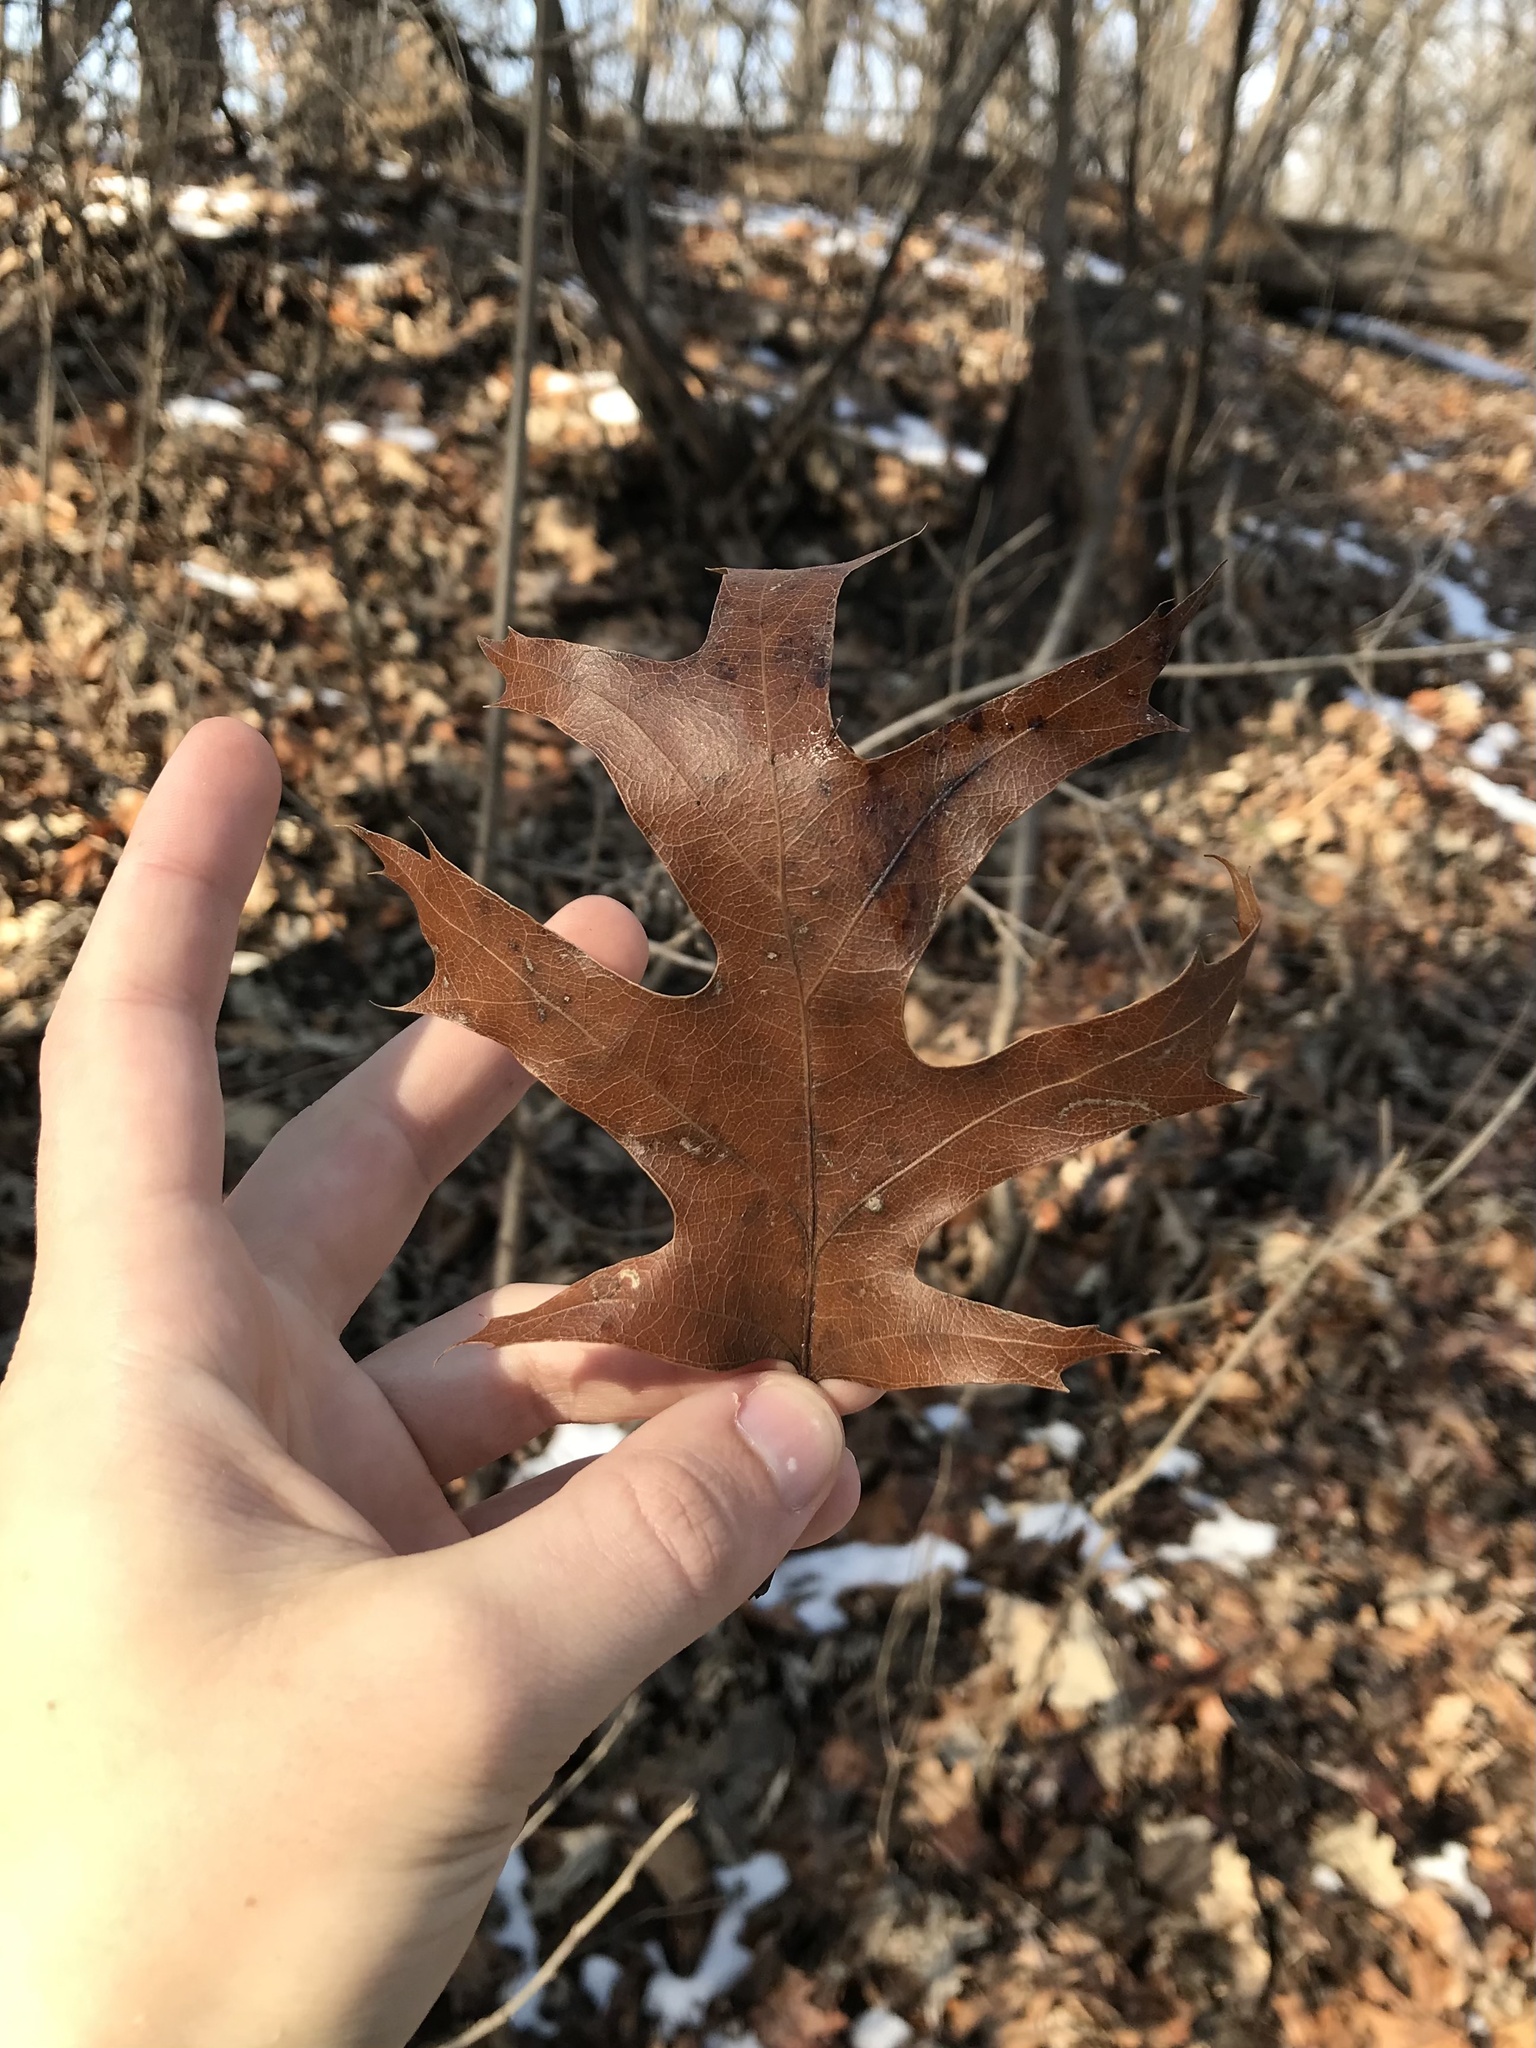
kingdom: Plantae
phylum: Tracheophyta
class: Magnoliopsida
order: Fagales
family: Fagaceae
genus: Quercus
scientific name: Quercus ellipsoidalis
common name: Hill's oak
